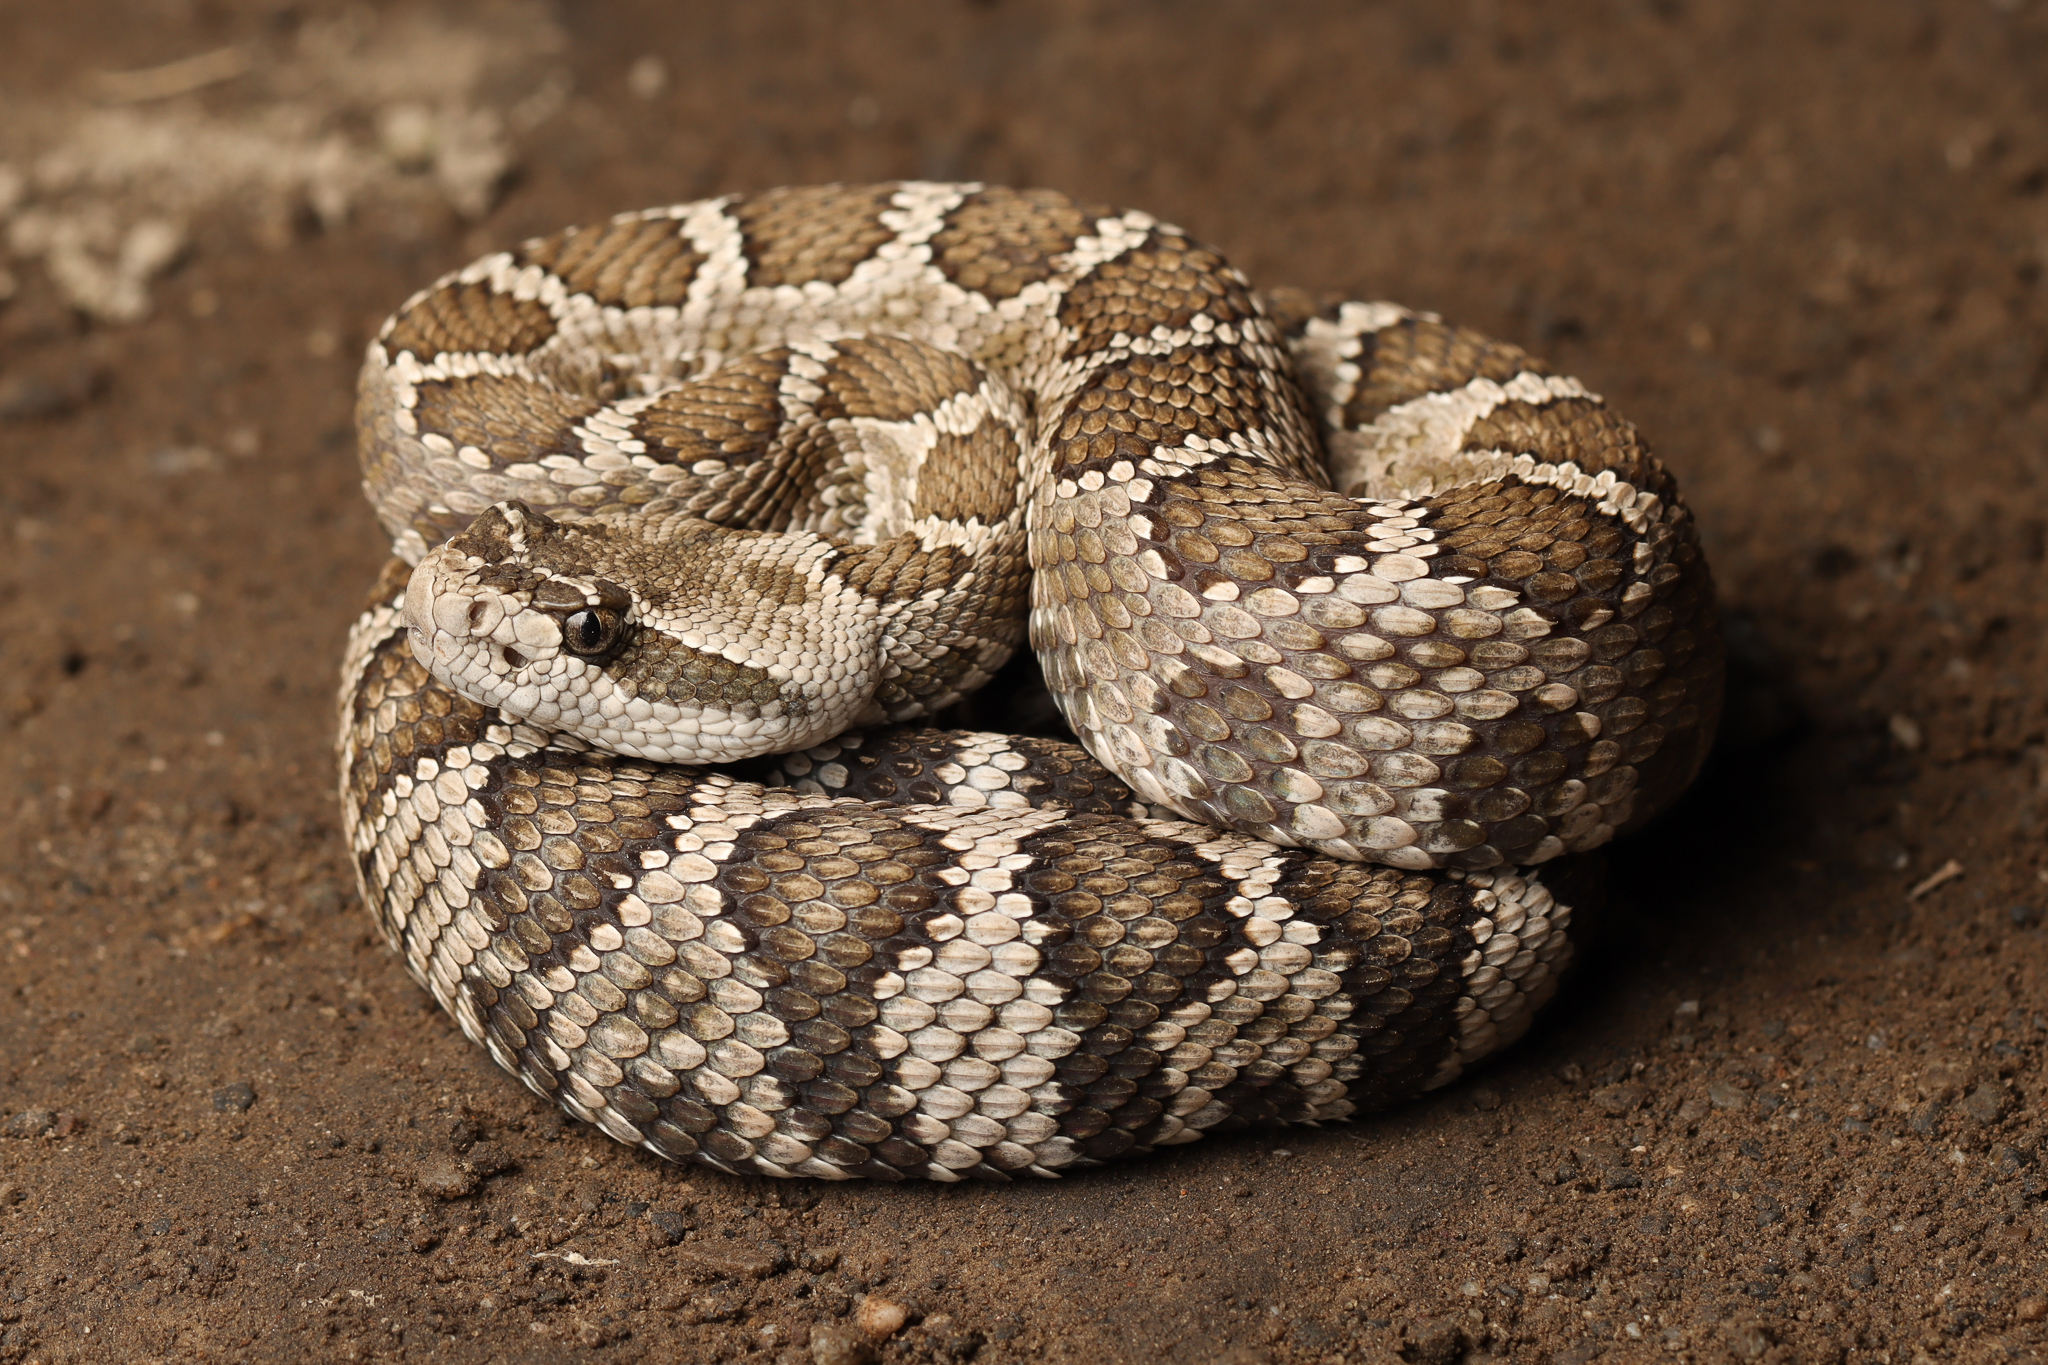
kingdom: Animalia
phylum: Chordata
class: Squamata
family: Viperidae
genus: Crotalus
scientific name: Crotalus oreganus
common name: Abyssus
